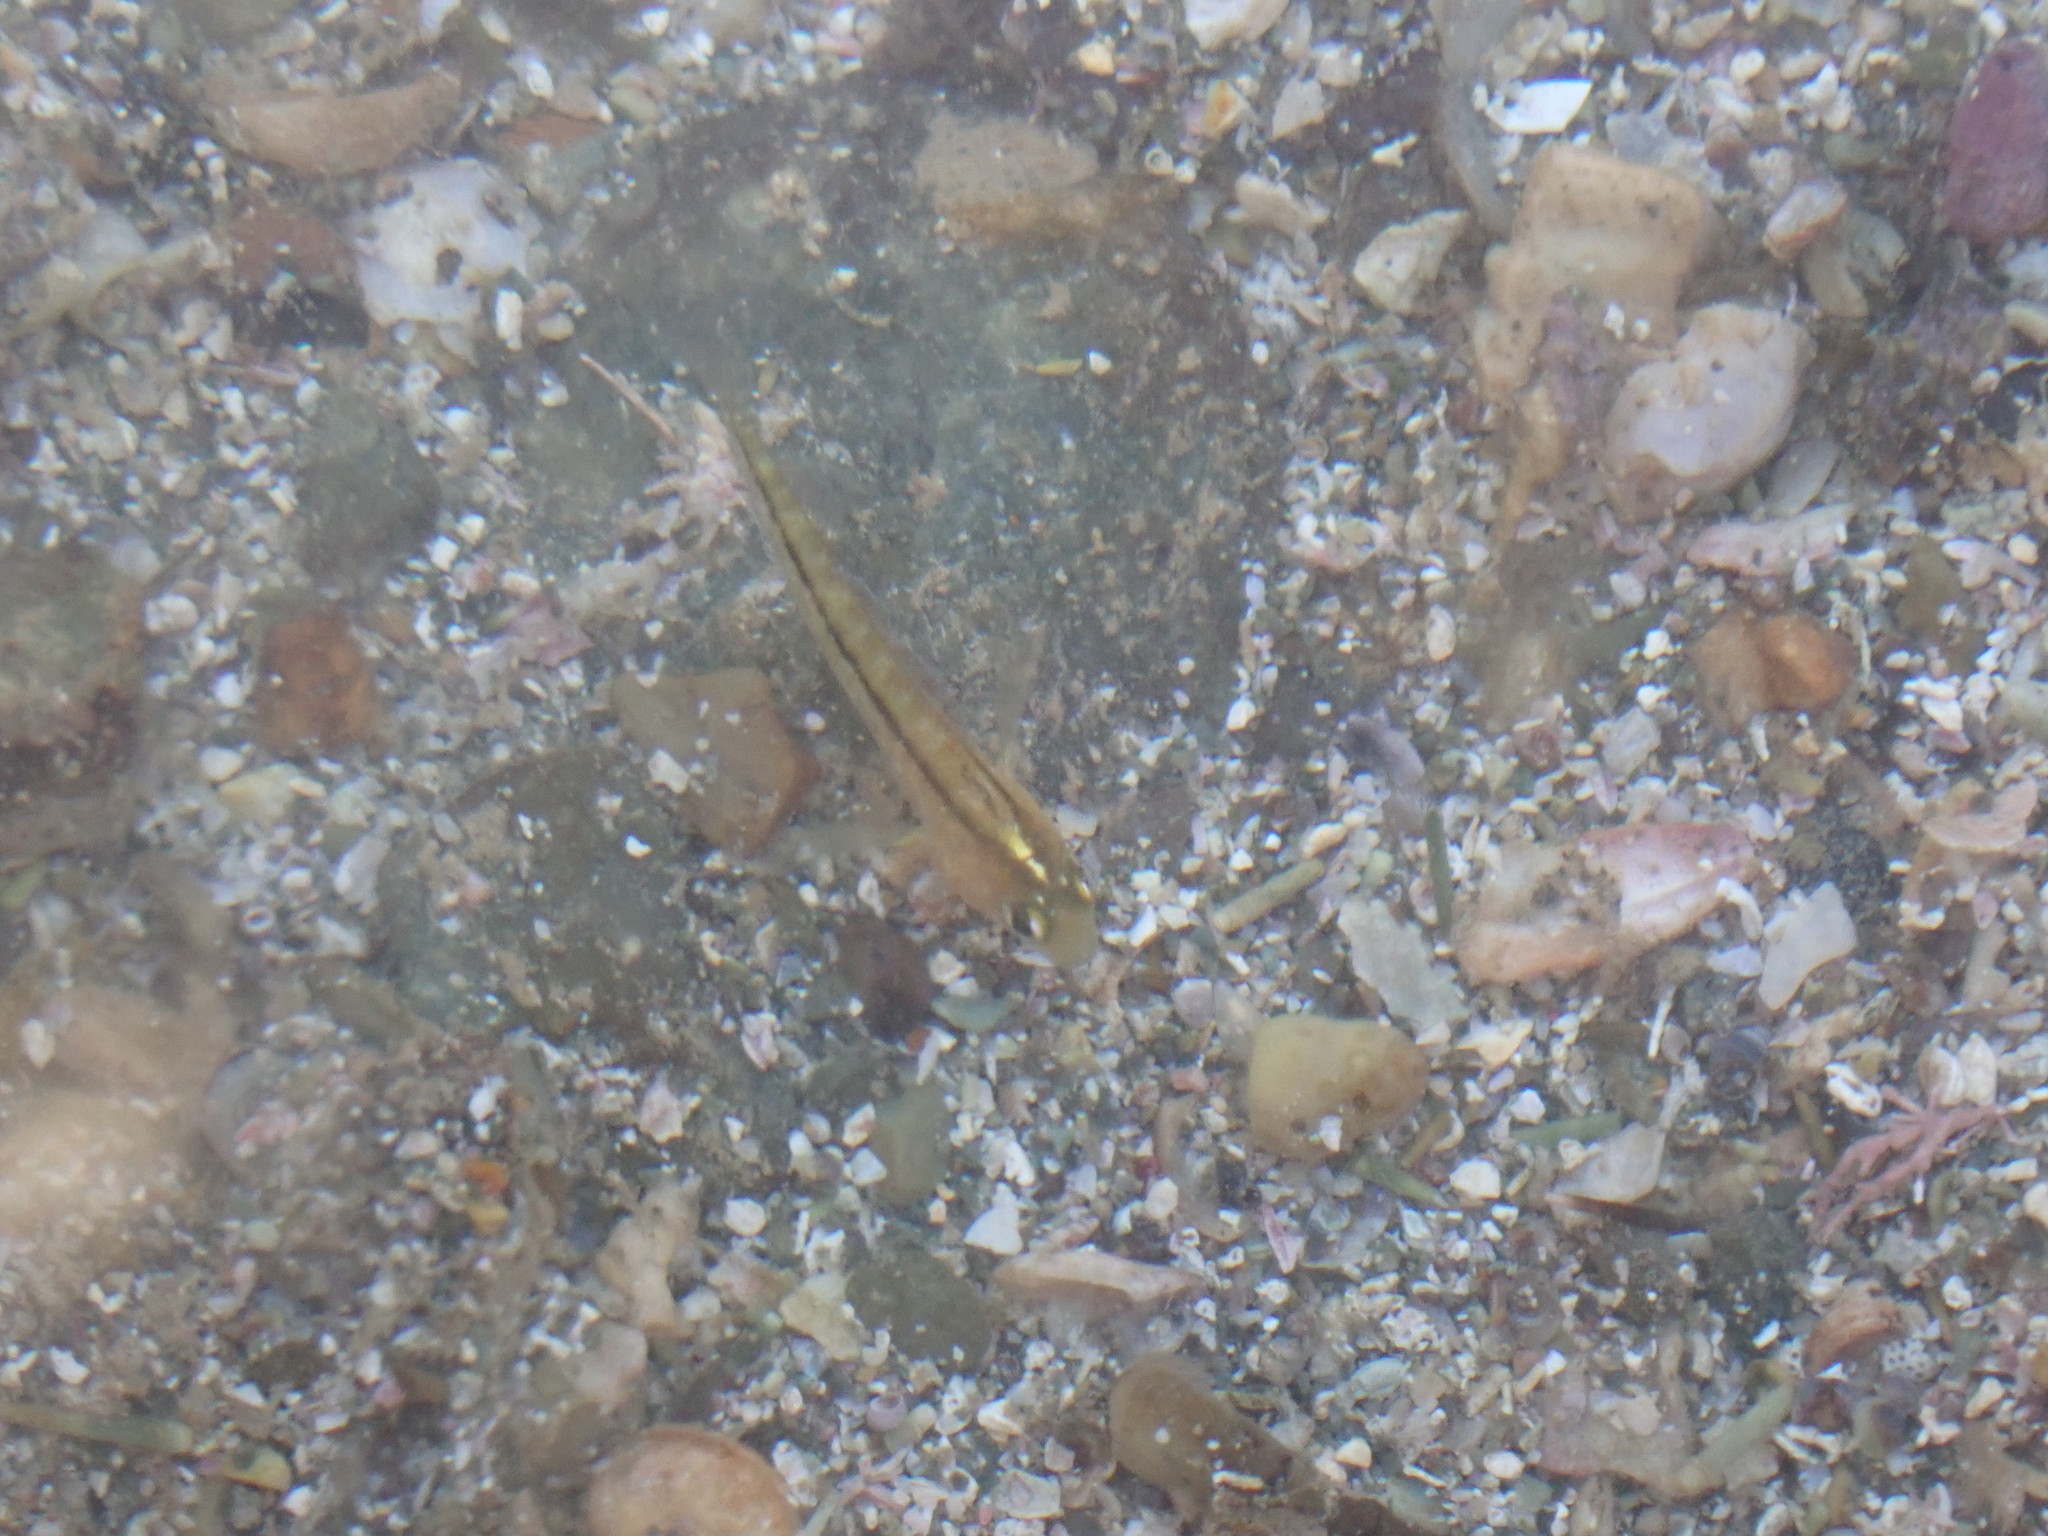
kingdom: Animalia
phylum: Chordata
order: Perciformes
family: Tripterygiidae
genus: Forsterygion
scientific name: Forsterygion lapillum
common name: Common triplefin
